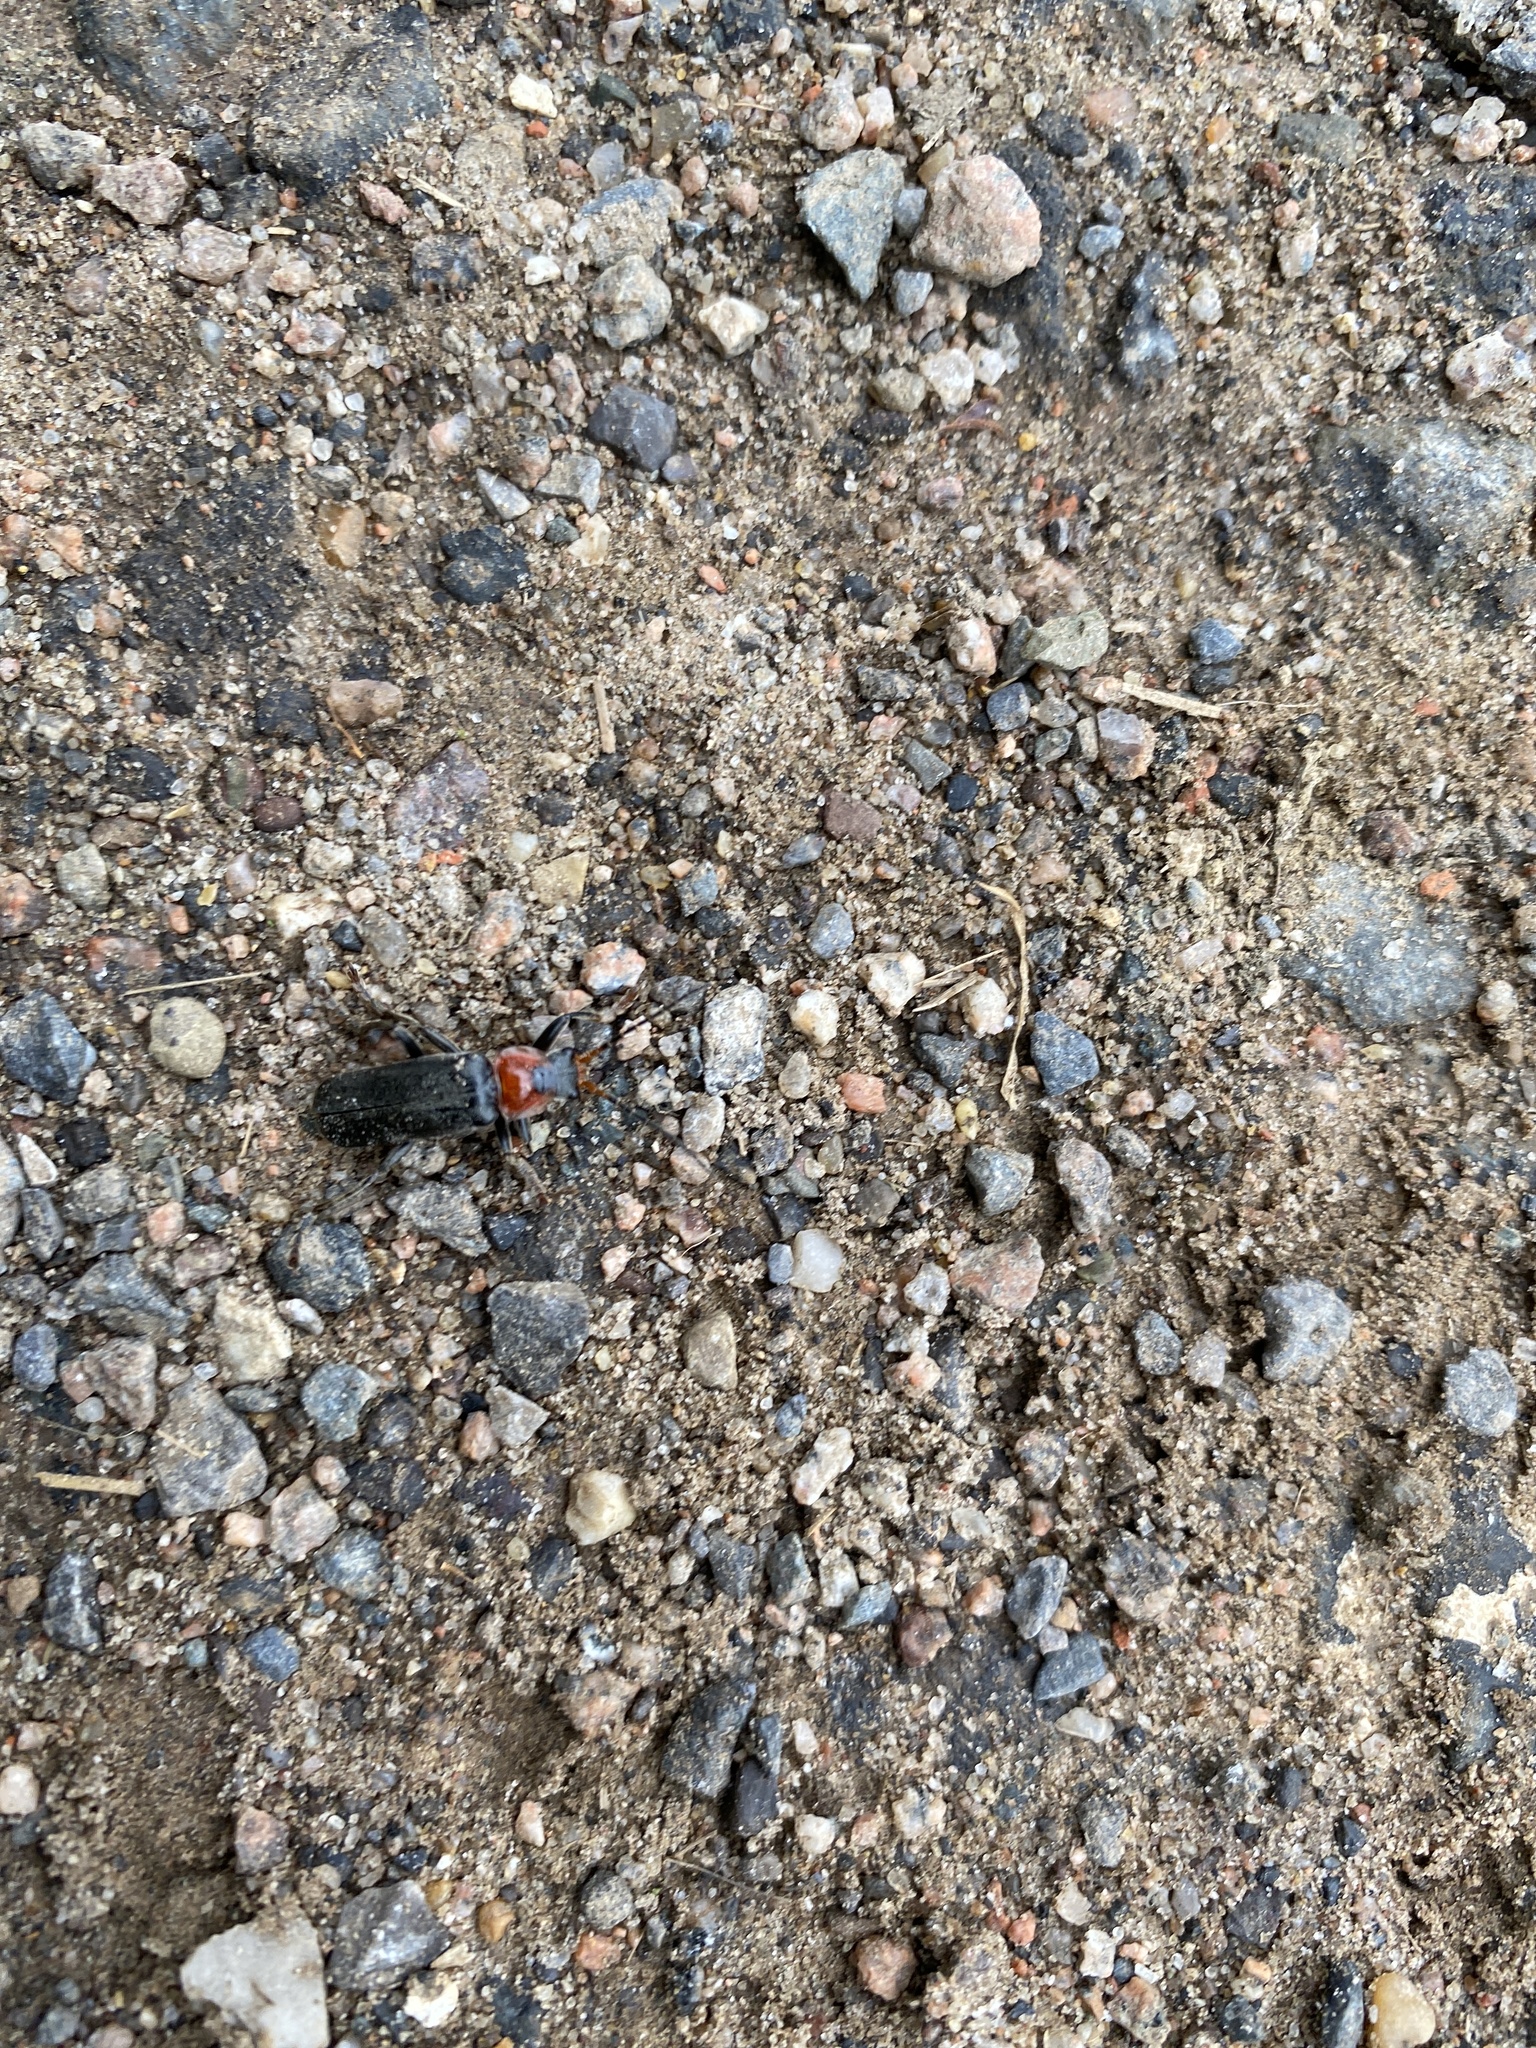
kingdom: Animalia
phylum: Arthropoda
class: Insecta
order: Coleoptera
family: Cantharidae
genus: Cantharis
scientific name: Cantharis fusca
